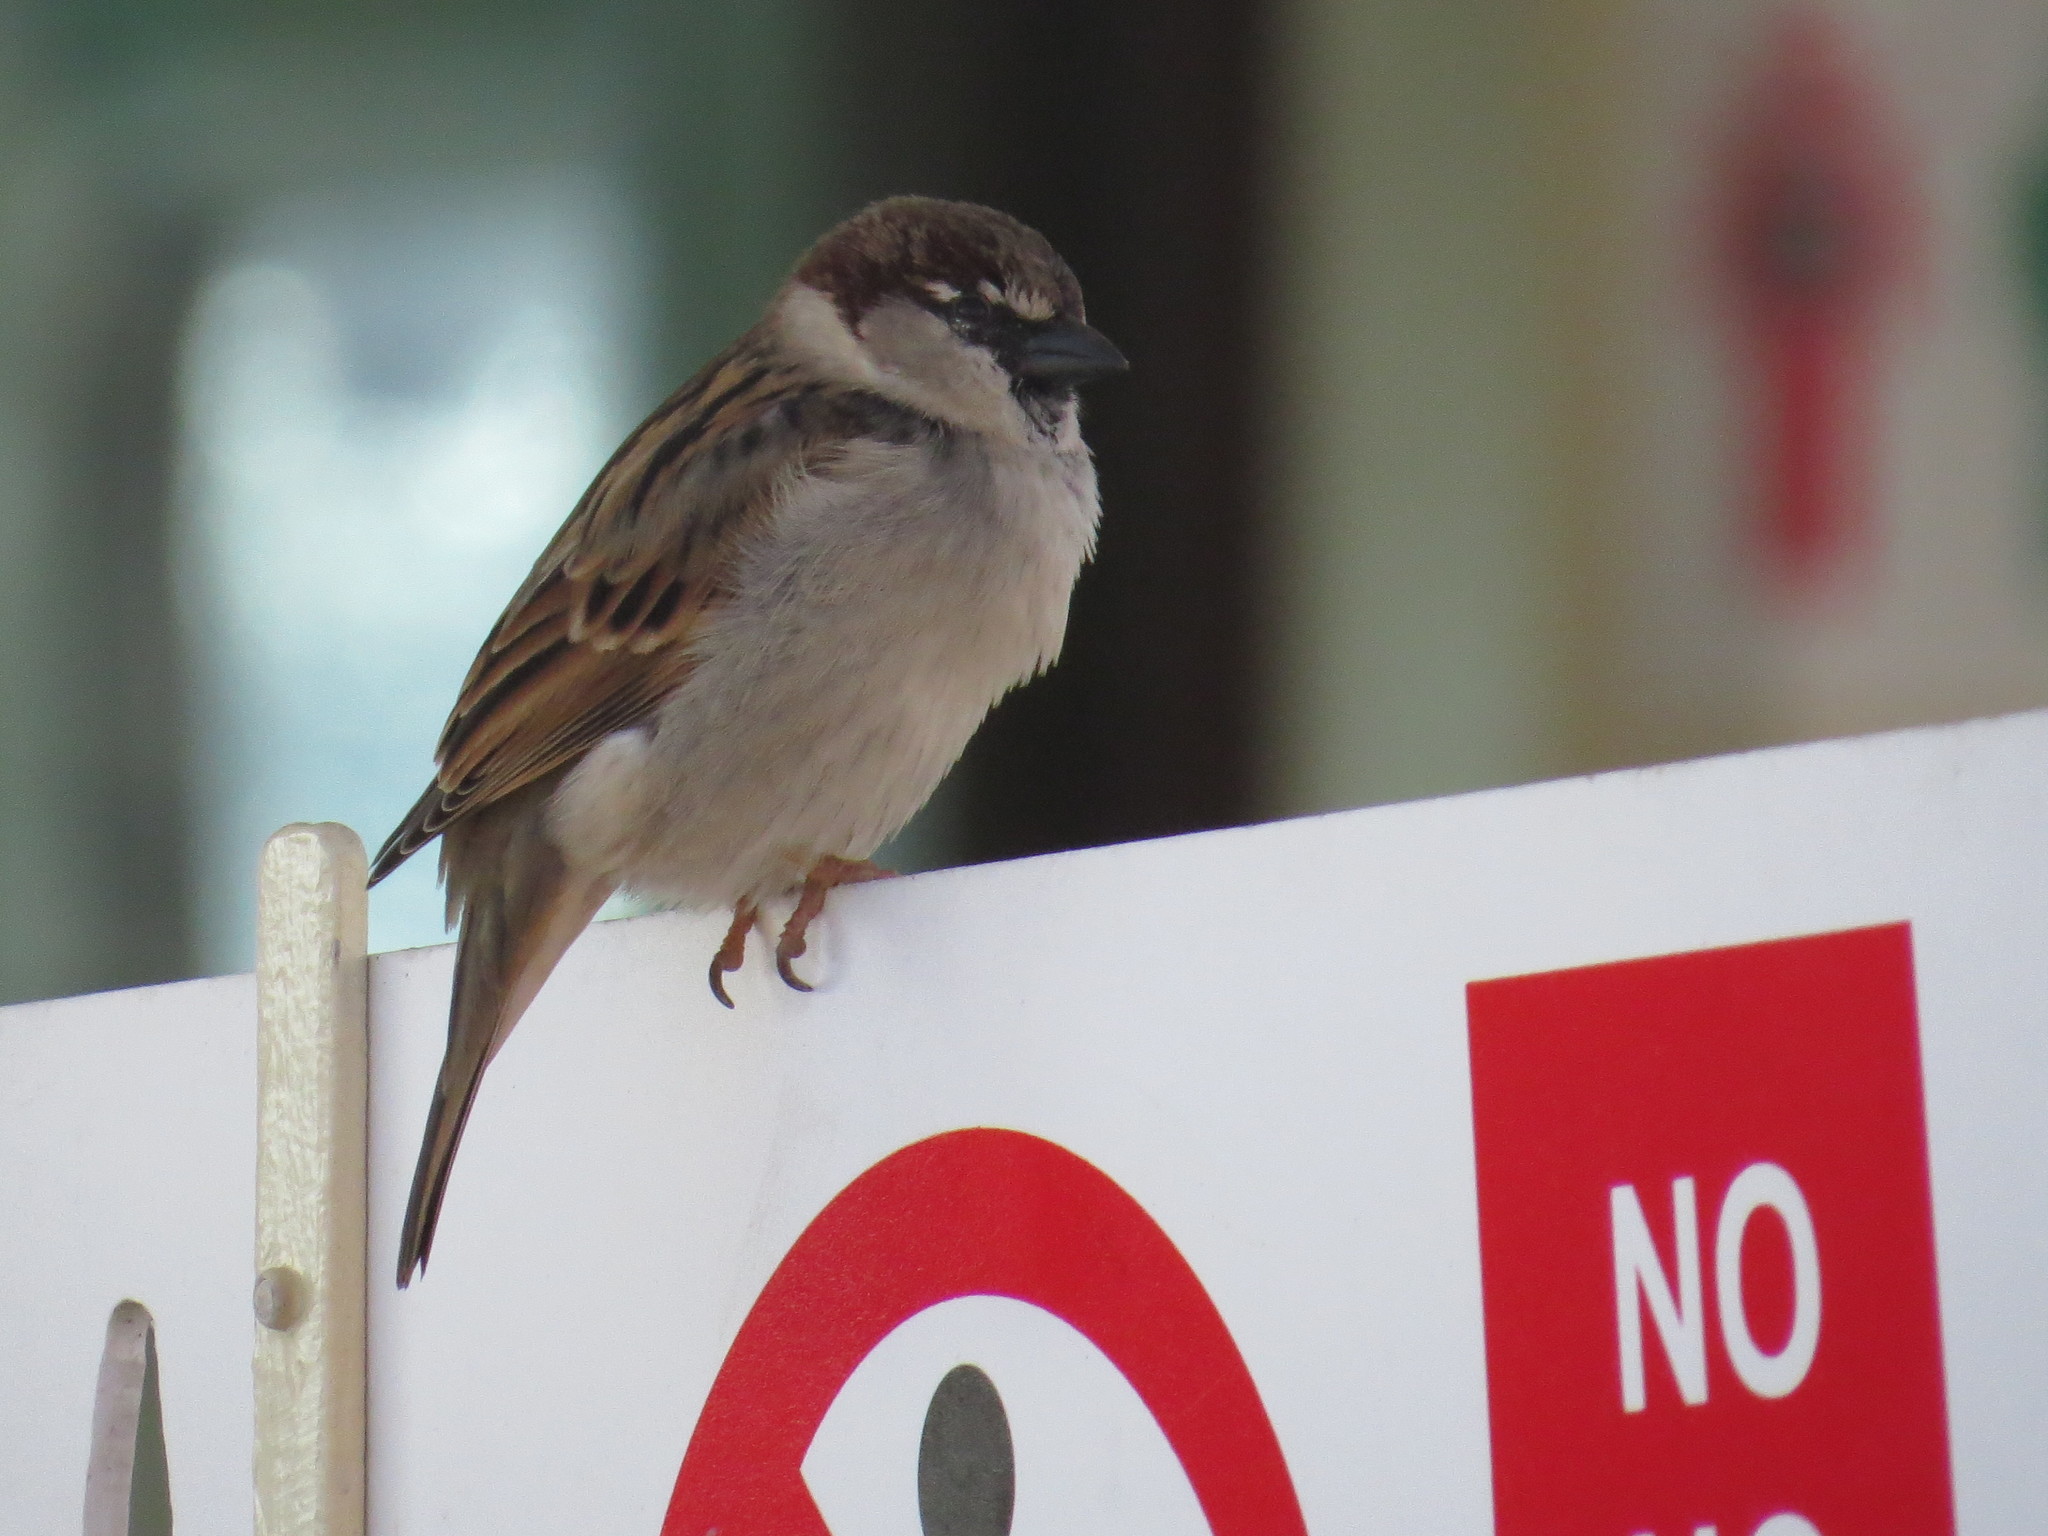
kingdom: Animalia
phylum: Chordata
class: Aves
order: Passeriformes
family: Passeridae
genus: Passer
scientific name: Passer italiae
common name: Italian sparrow
